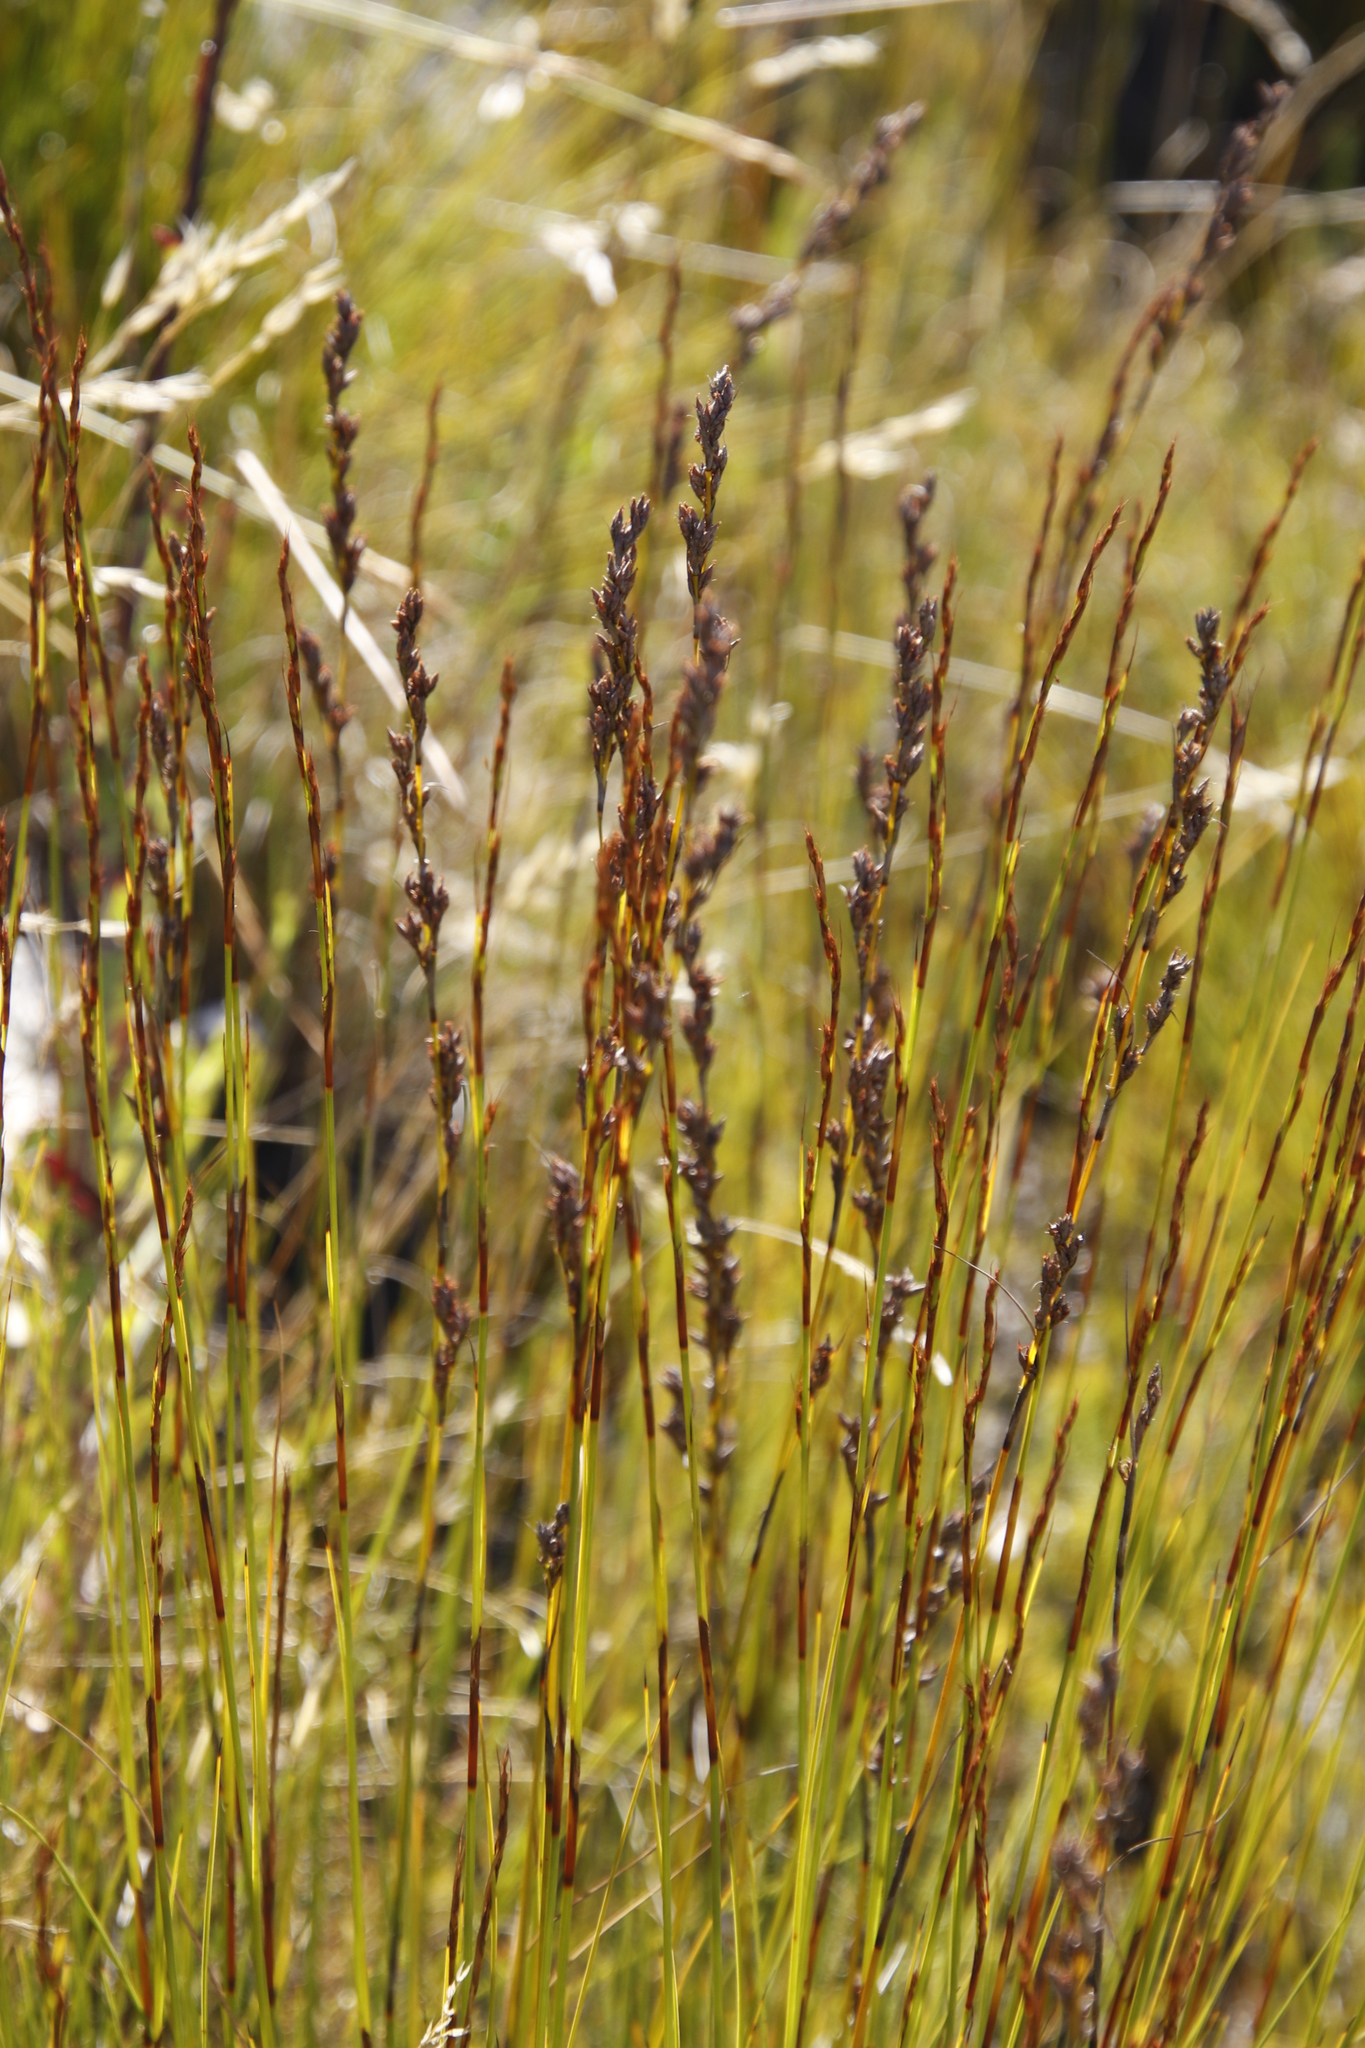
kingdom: Plantae
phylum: Tracheophyta
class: Liliopsida
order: Poales
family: Cyperaceae
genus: Tetraria
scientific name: Tetraria flexuosa
